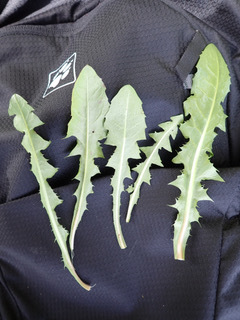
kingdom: Plantae
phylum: Tracheophyta
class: Magnoliopsida
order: Asterales
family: Asteraceae
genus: Taraxacum
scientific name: Taraxacum aequilobum
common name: Twisted-bracted dandelion
